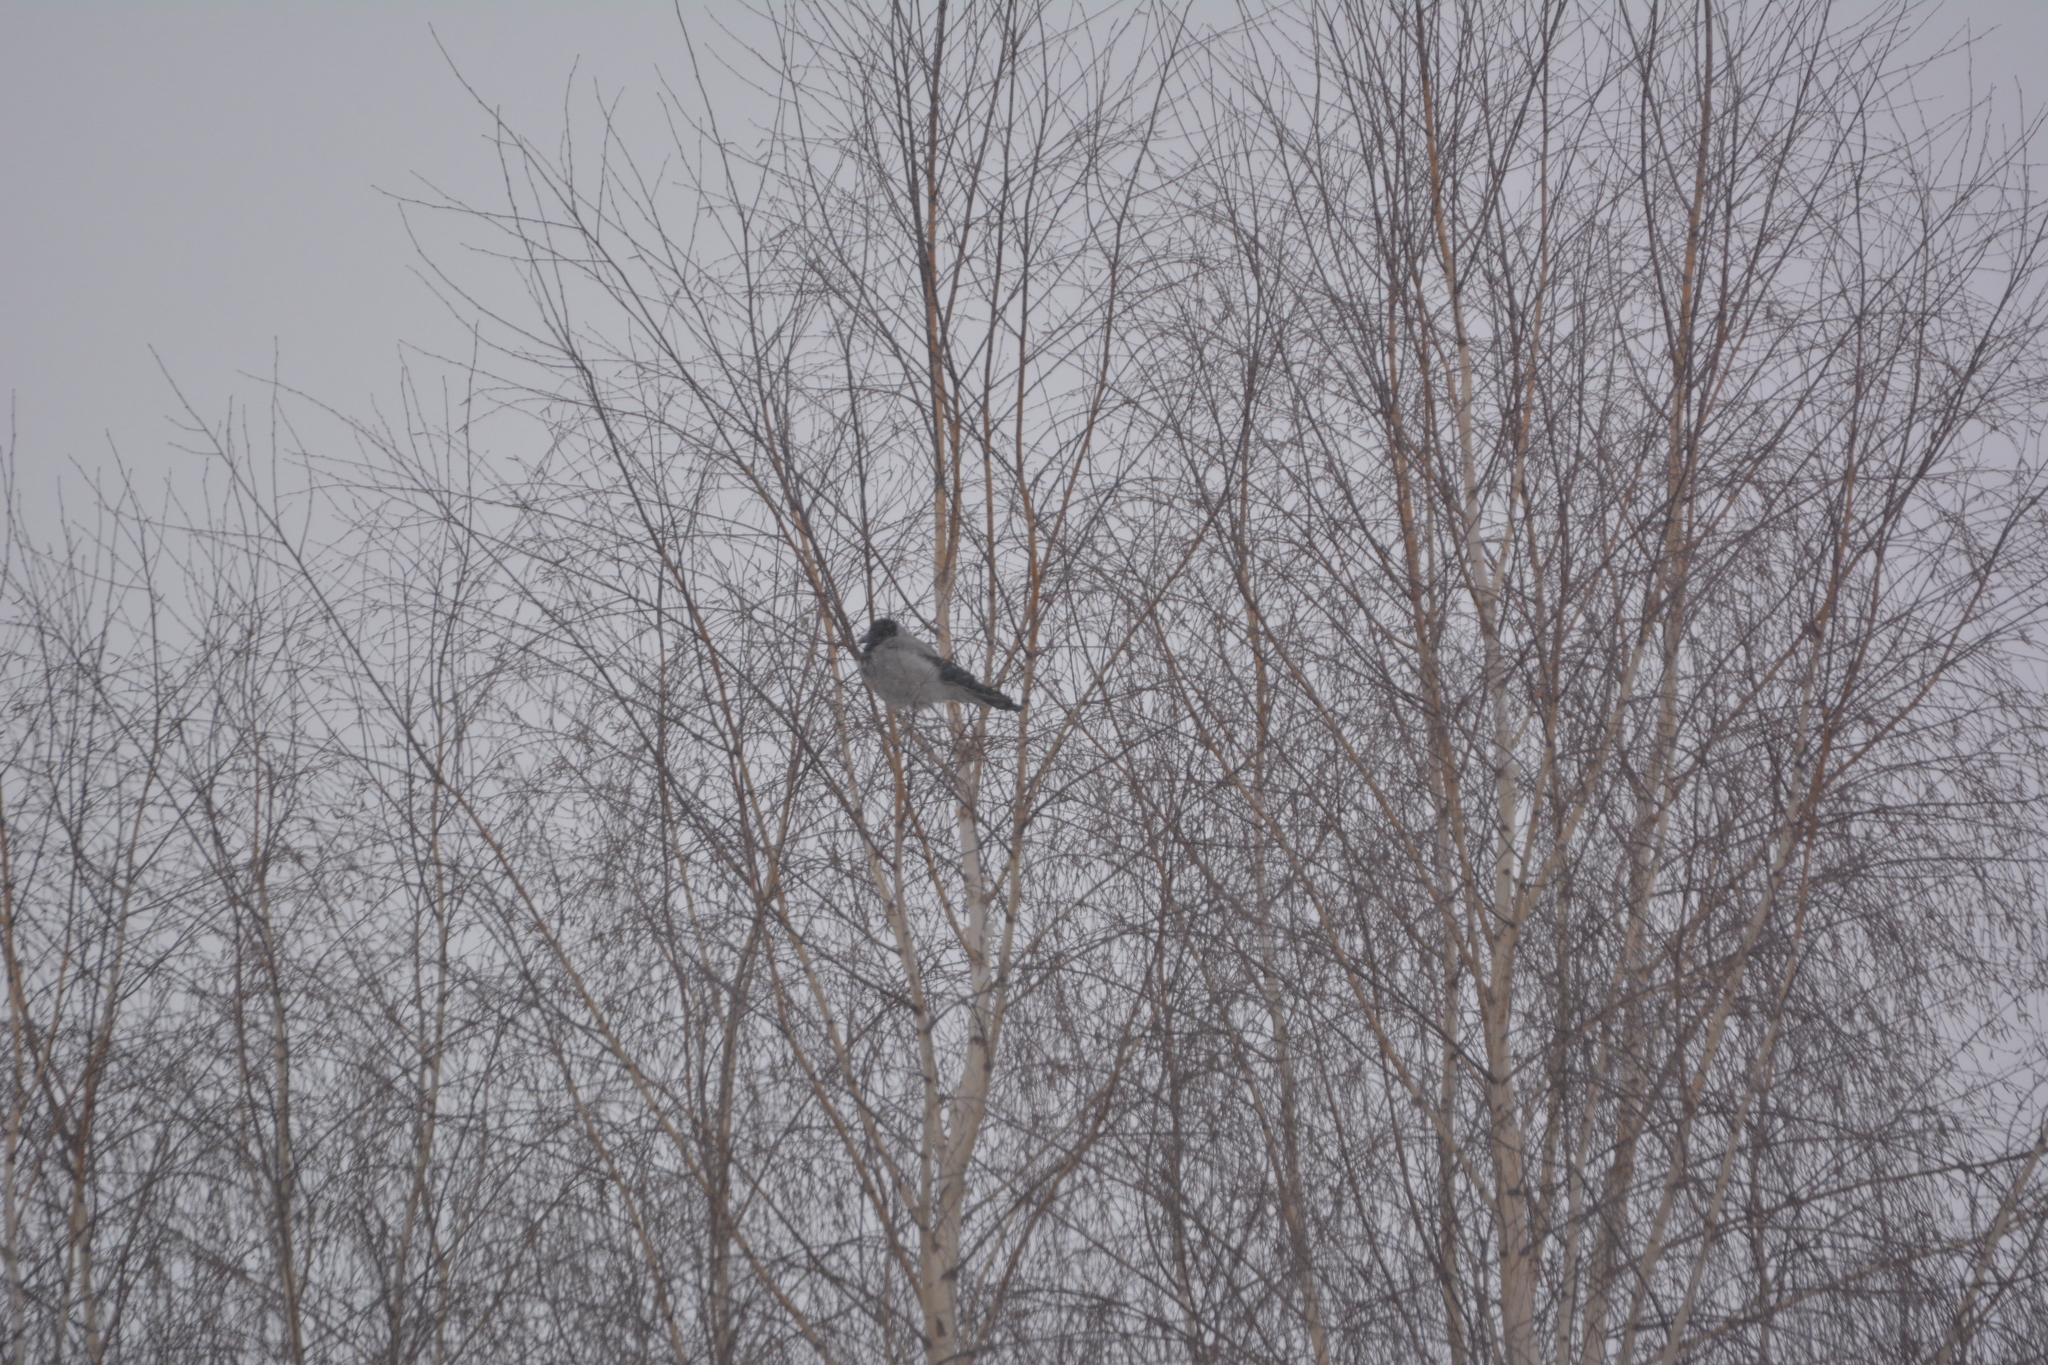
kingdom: Animalia
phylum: Chordata
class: Aves
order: Passeriformes
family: Corvidae
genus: Corvus
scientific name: Corvus cornix
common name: Hooded crow
